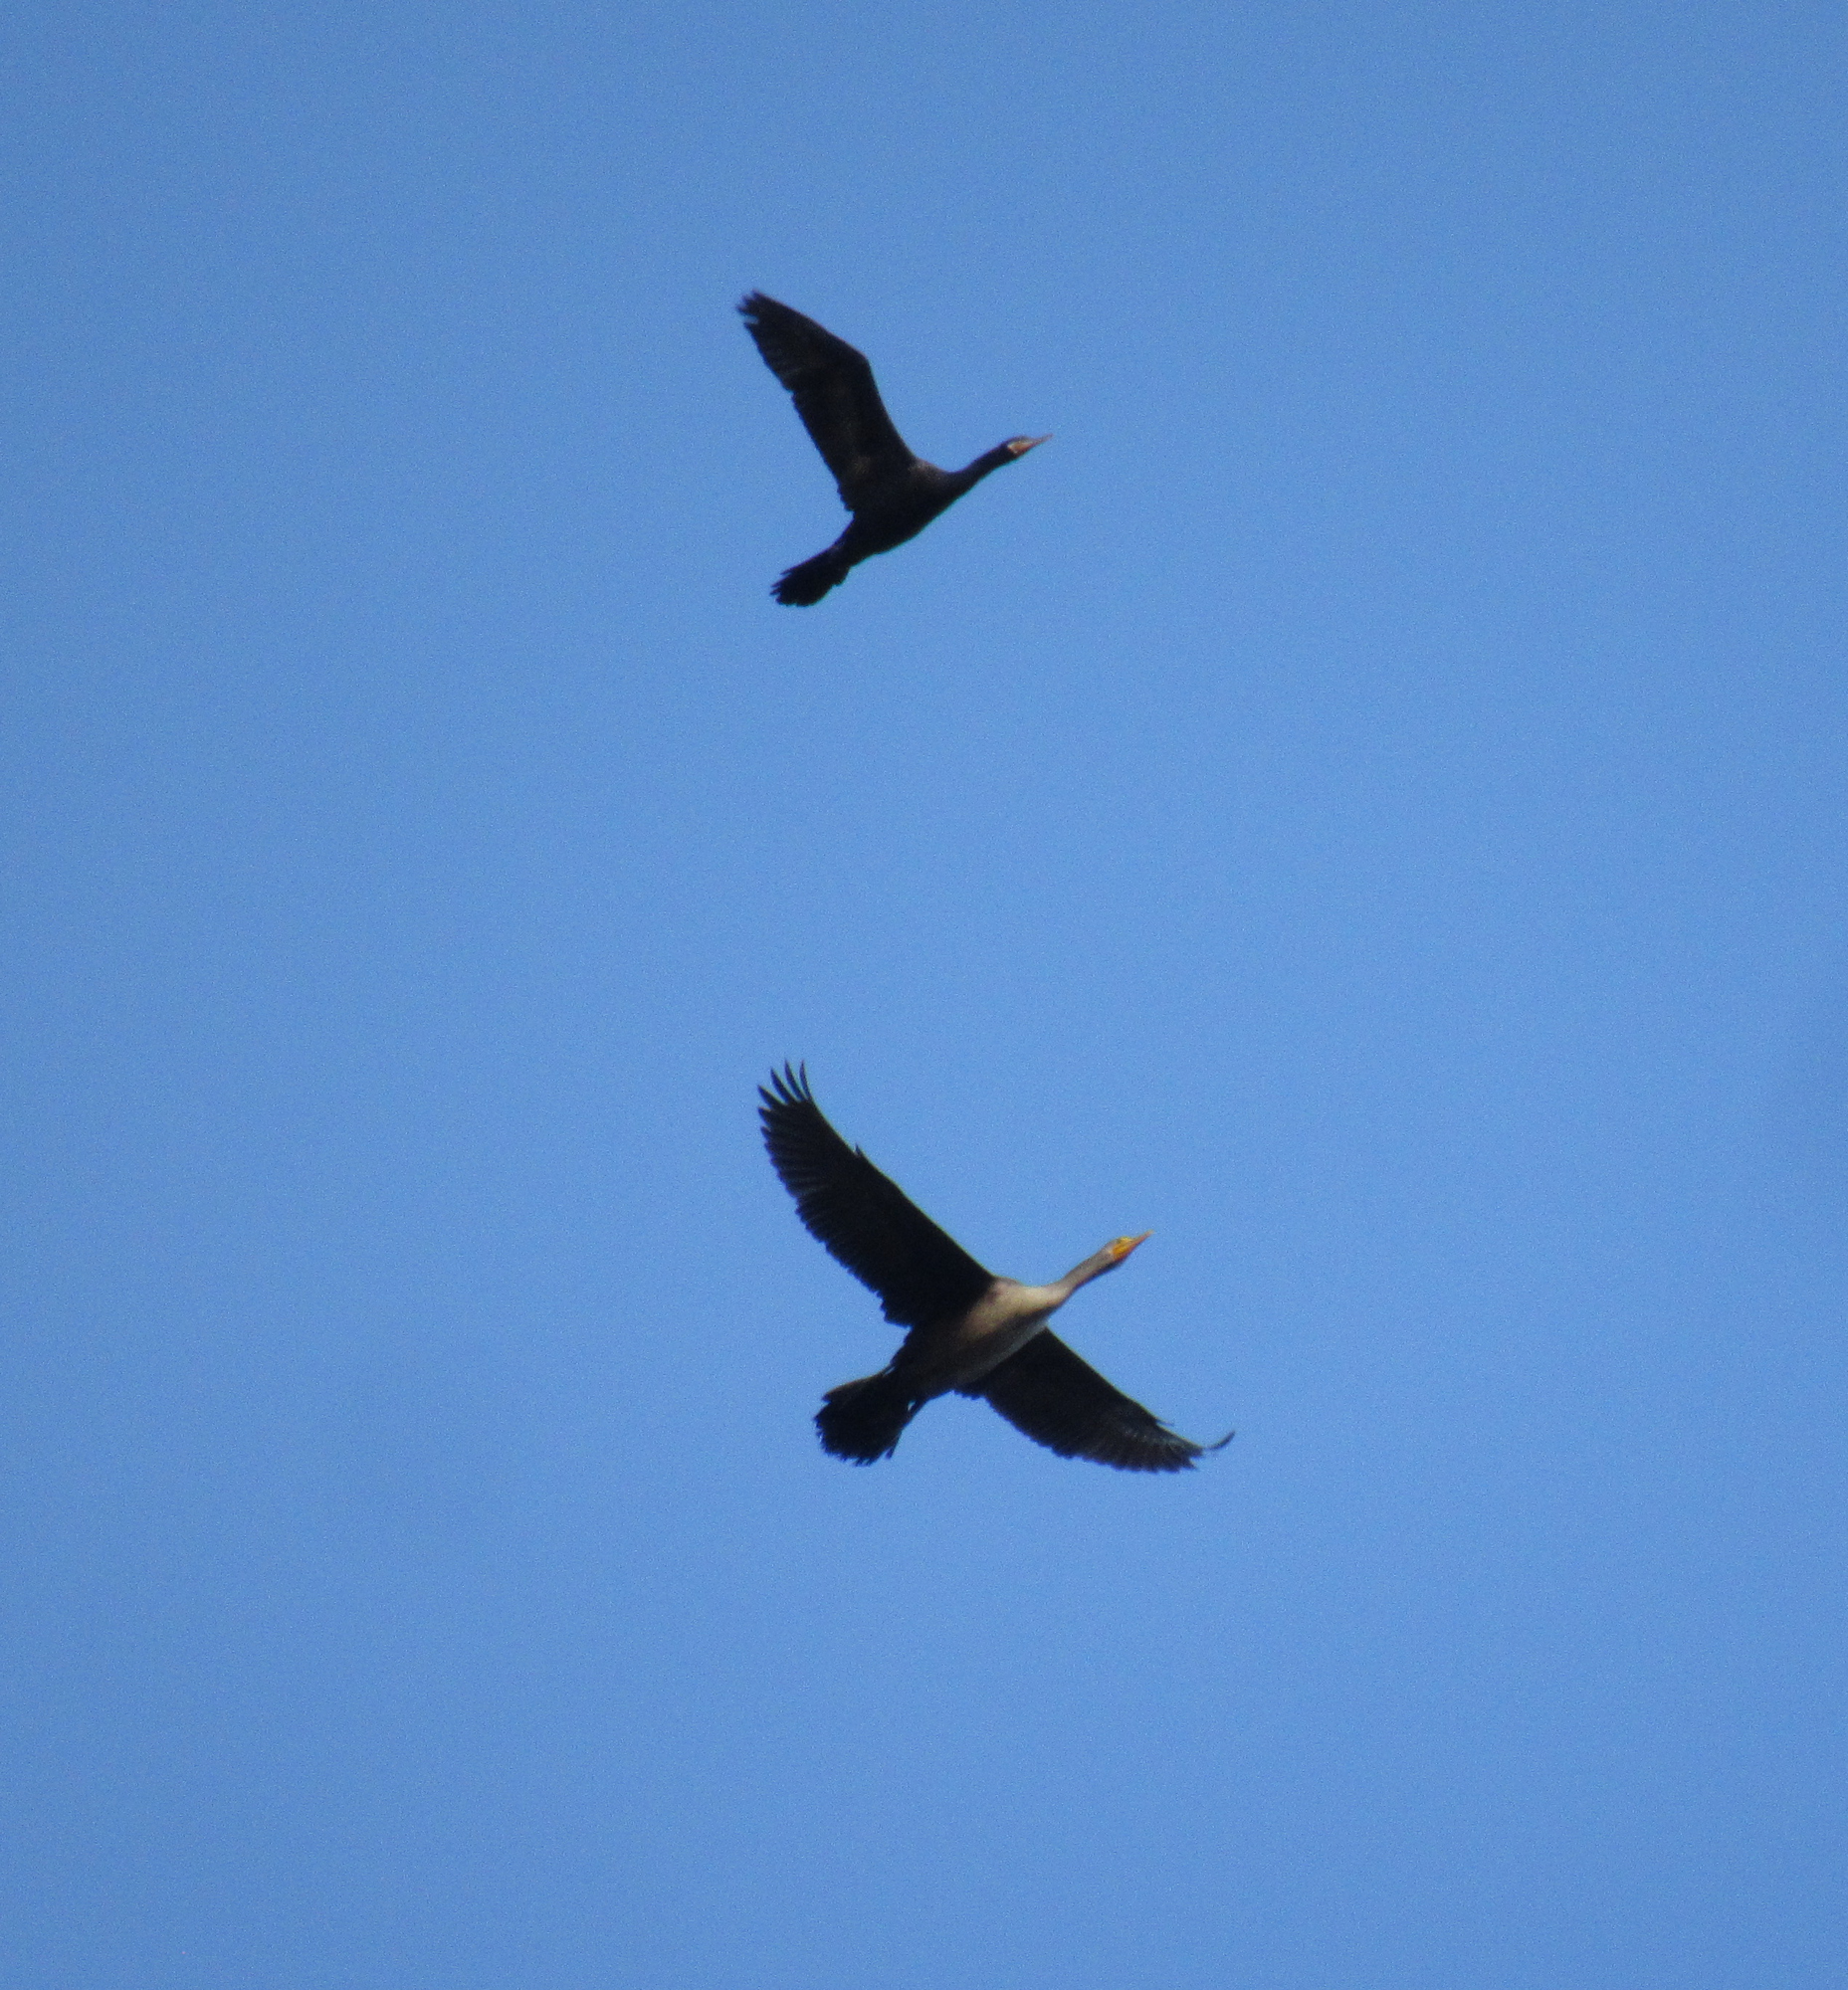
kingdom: Animalia
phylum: Chordata
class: Aves
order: Suliformes
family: Phalacrocoracidae
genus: Phalacrocorax
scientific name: Phalacrocorax brasilianus
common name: Neotropic cormorant
